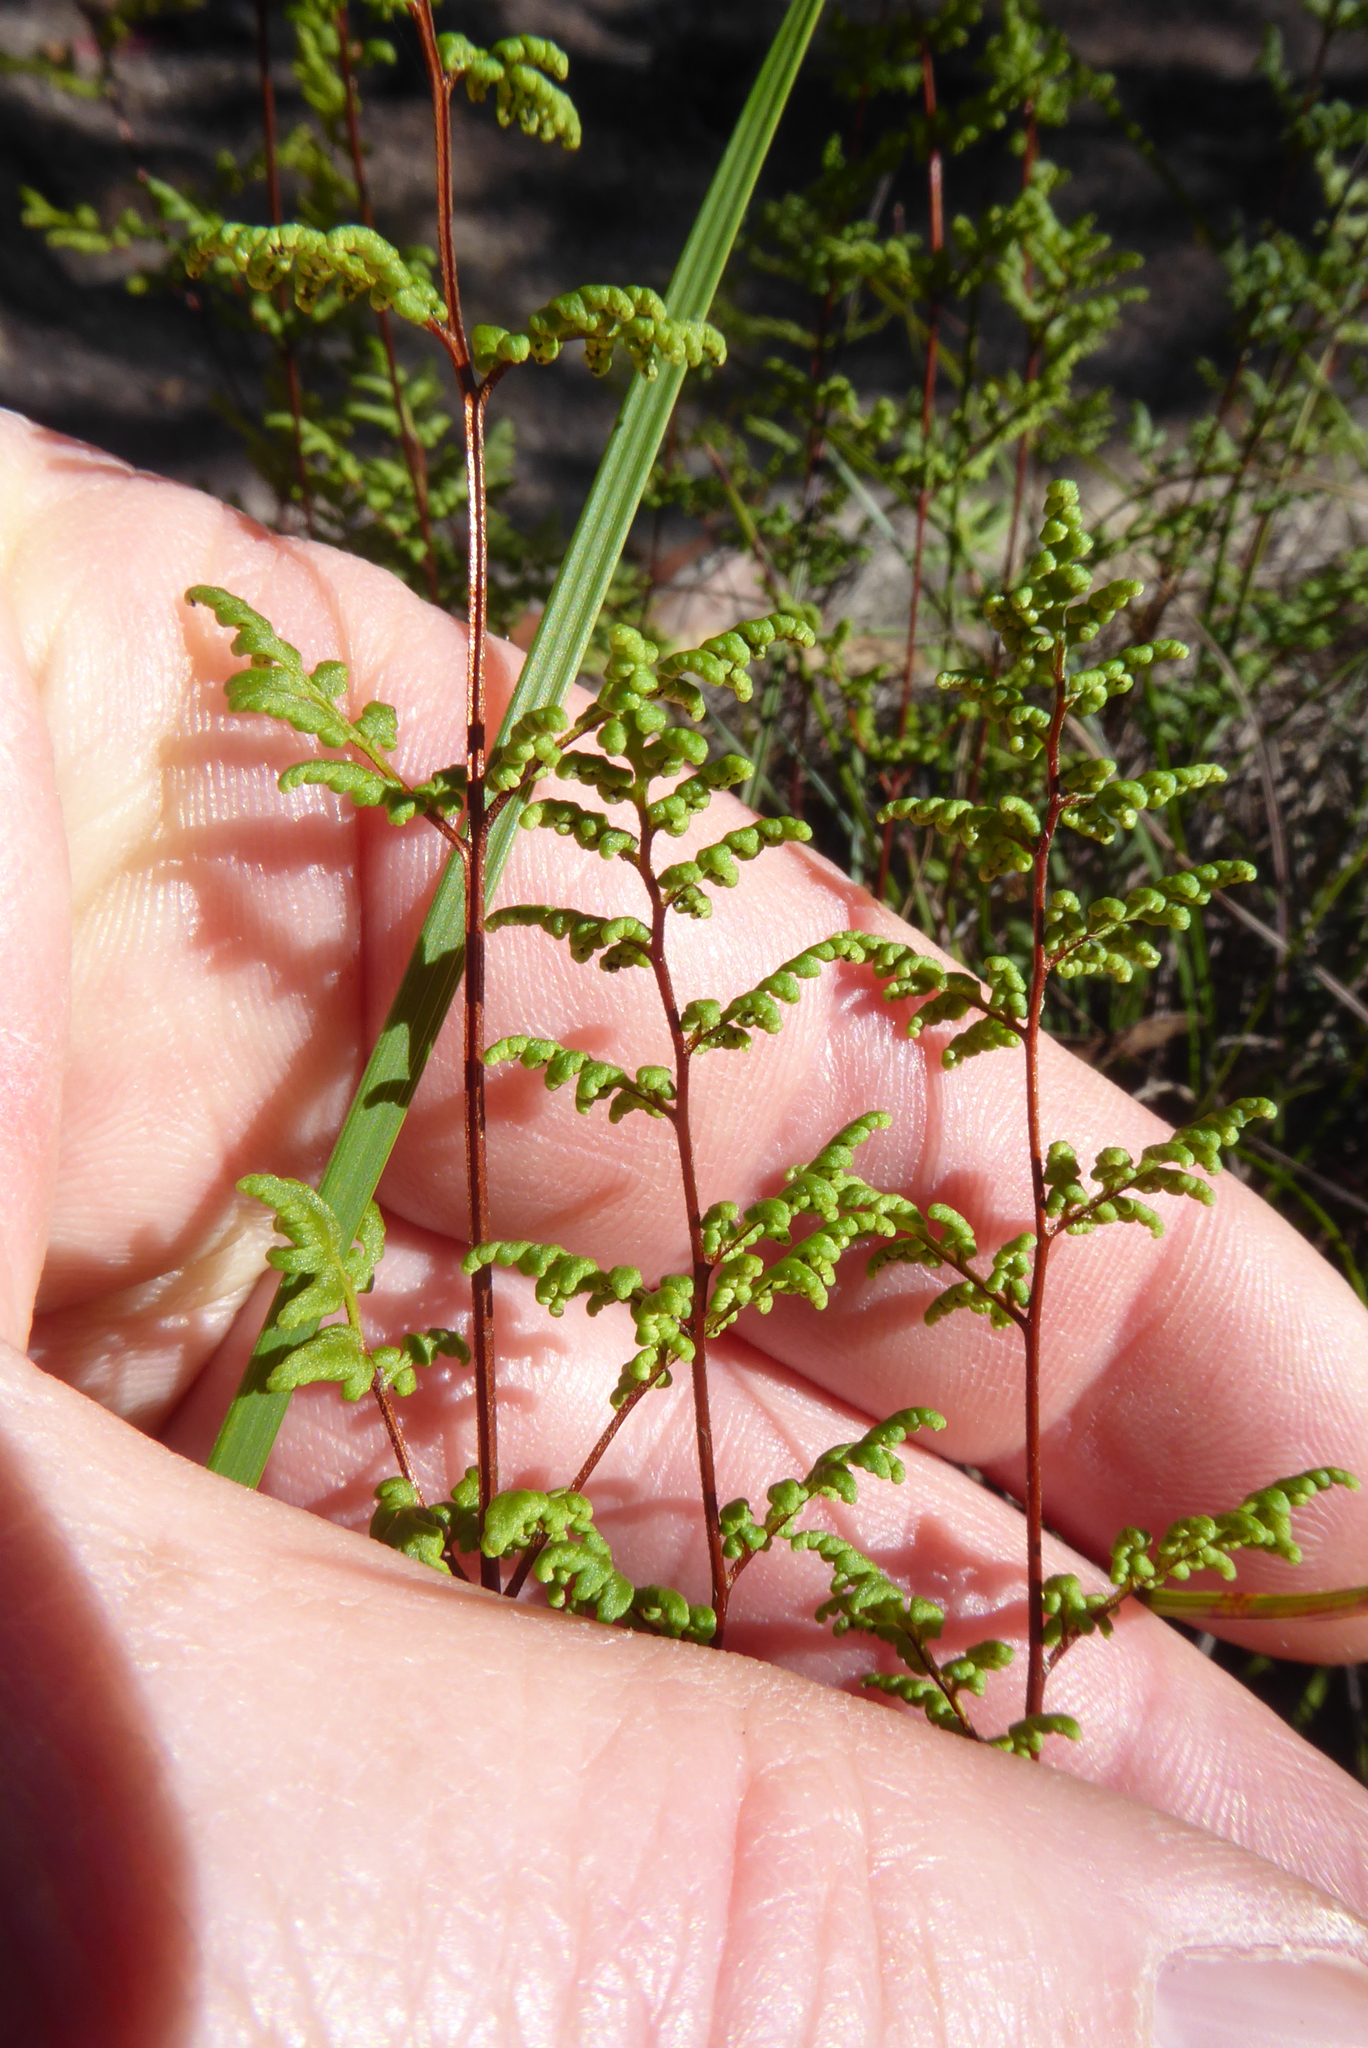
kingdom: Plantae
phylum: Tracheophyta
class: Polypodiopsida
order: Polypodiales
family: Pteridaceae
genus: Cheilanthes
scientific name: Cheilanthes sieberi
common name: Mulga fern
